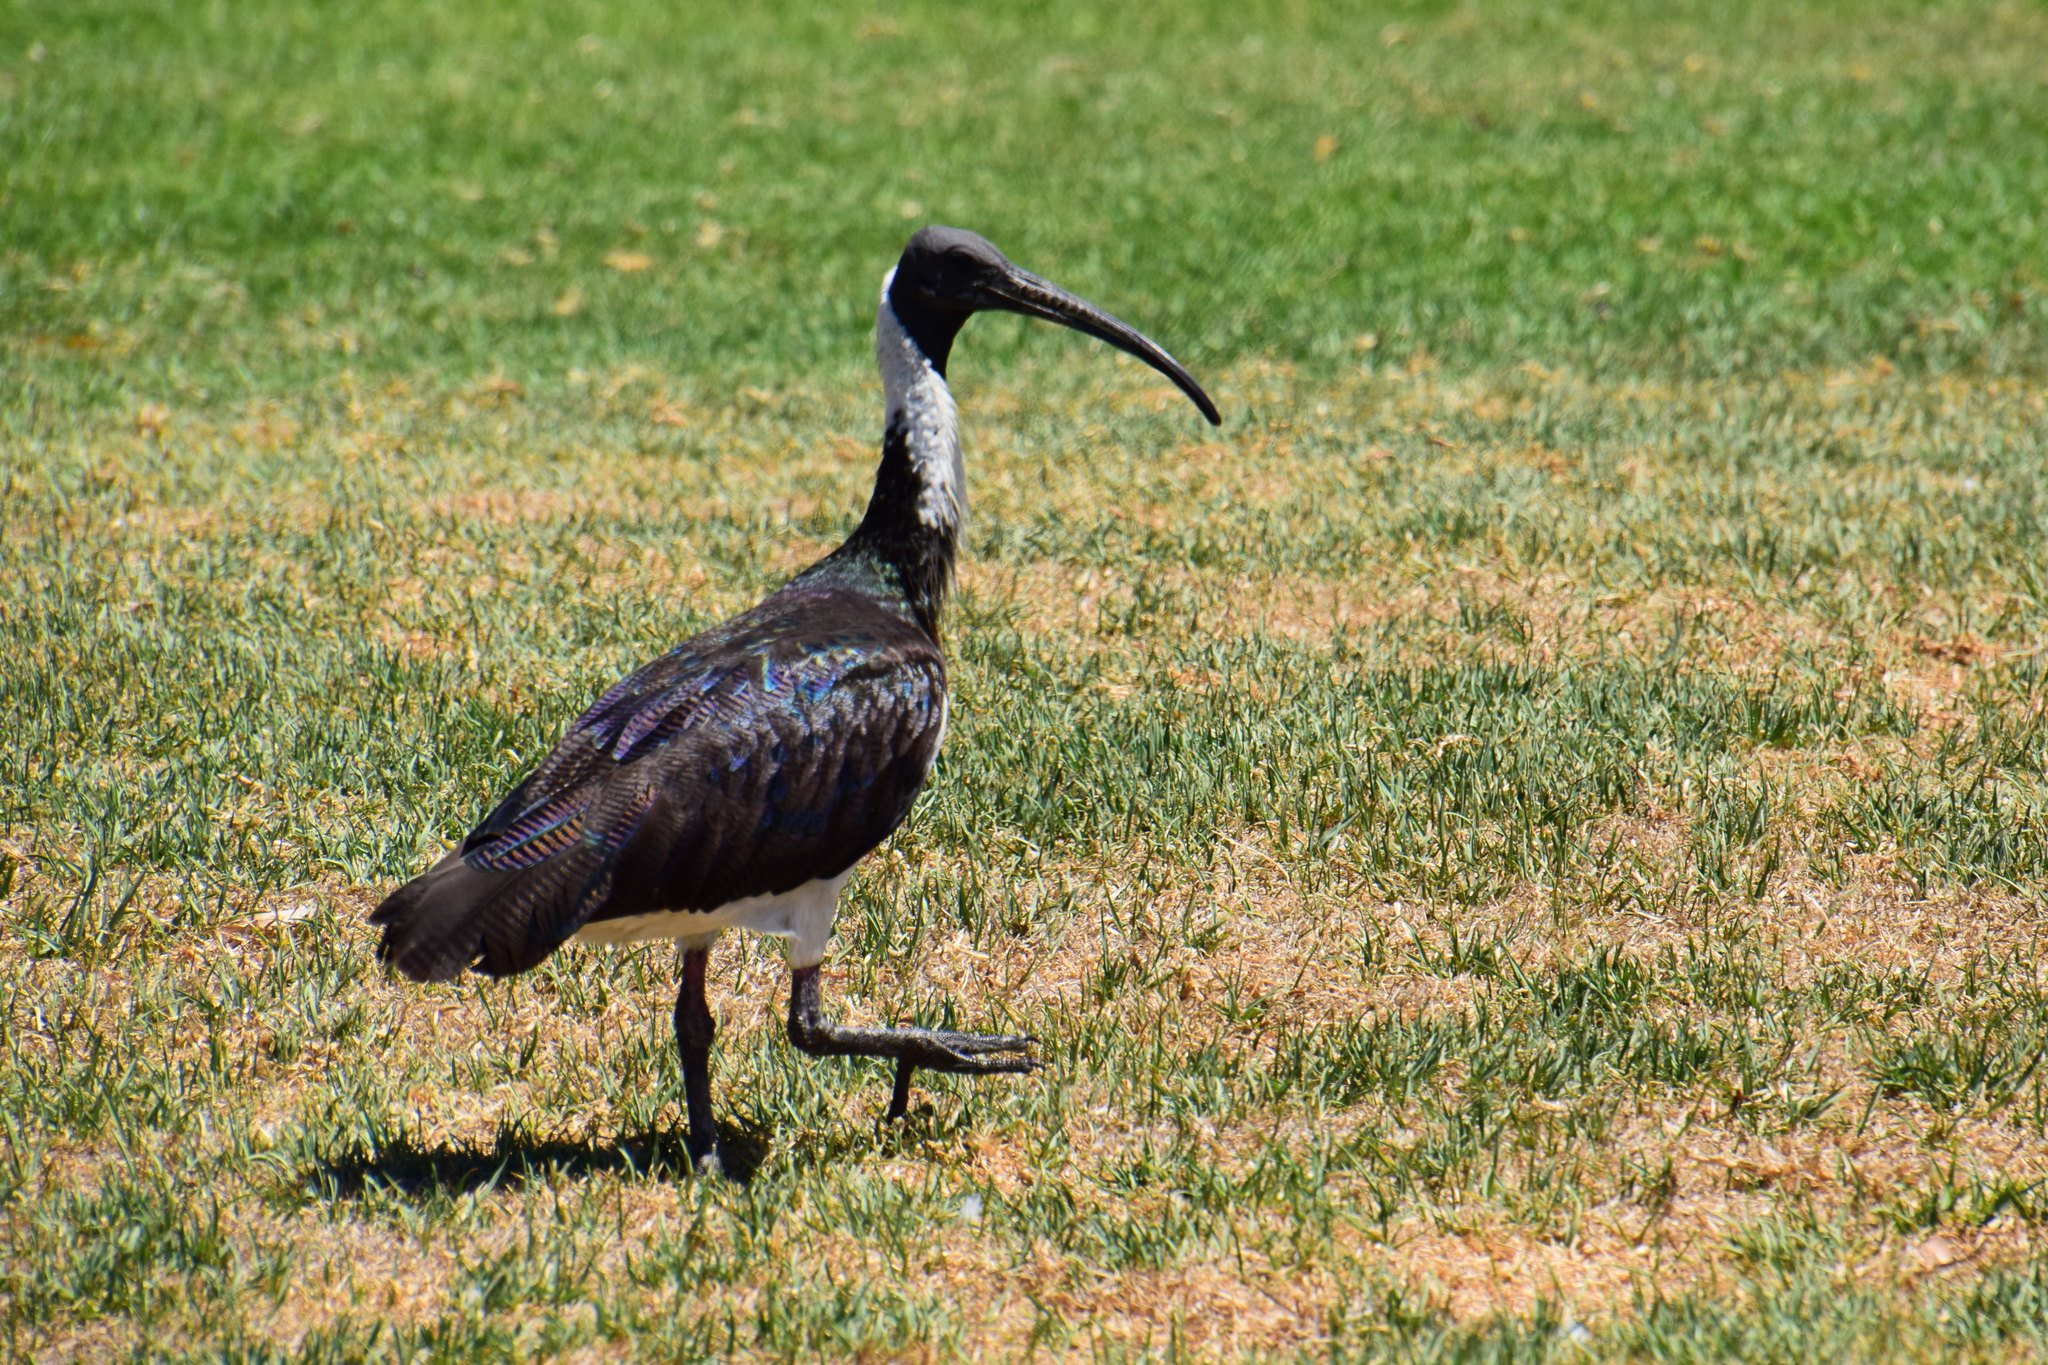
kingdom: Animalia
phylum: Chordata
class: Aves
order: Pelecaniformes
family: Threskiornithidae
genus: Threskiornis
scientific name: Threskiornis spinicollis
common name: Straw-necked ibis
